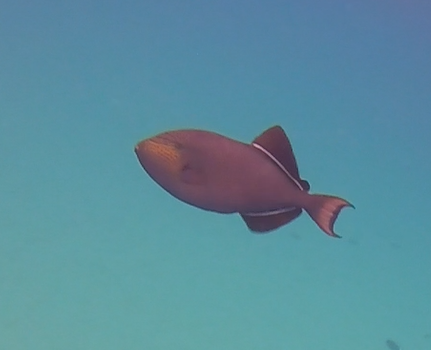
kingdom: Animalia
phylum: Chordata
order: Tetraodontiformes
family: Balistidae
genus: Melichthys
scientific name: Melichthys niger
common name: Black durgon
